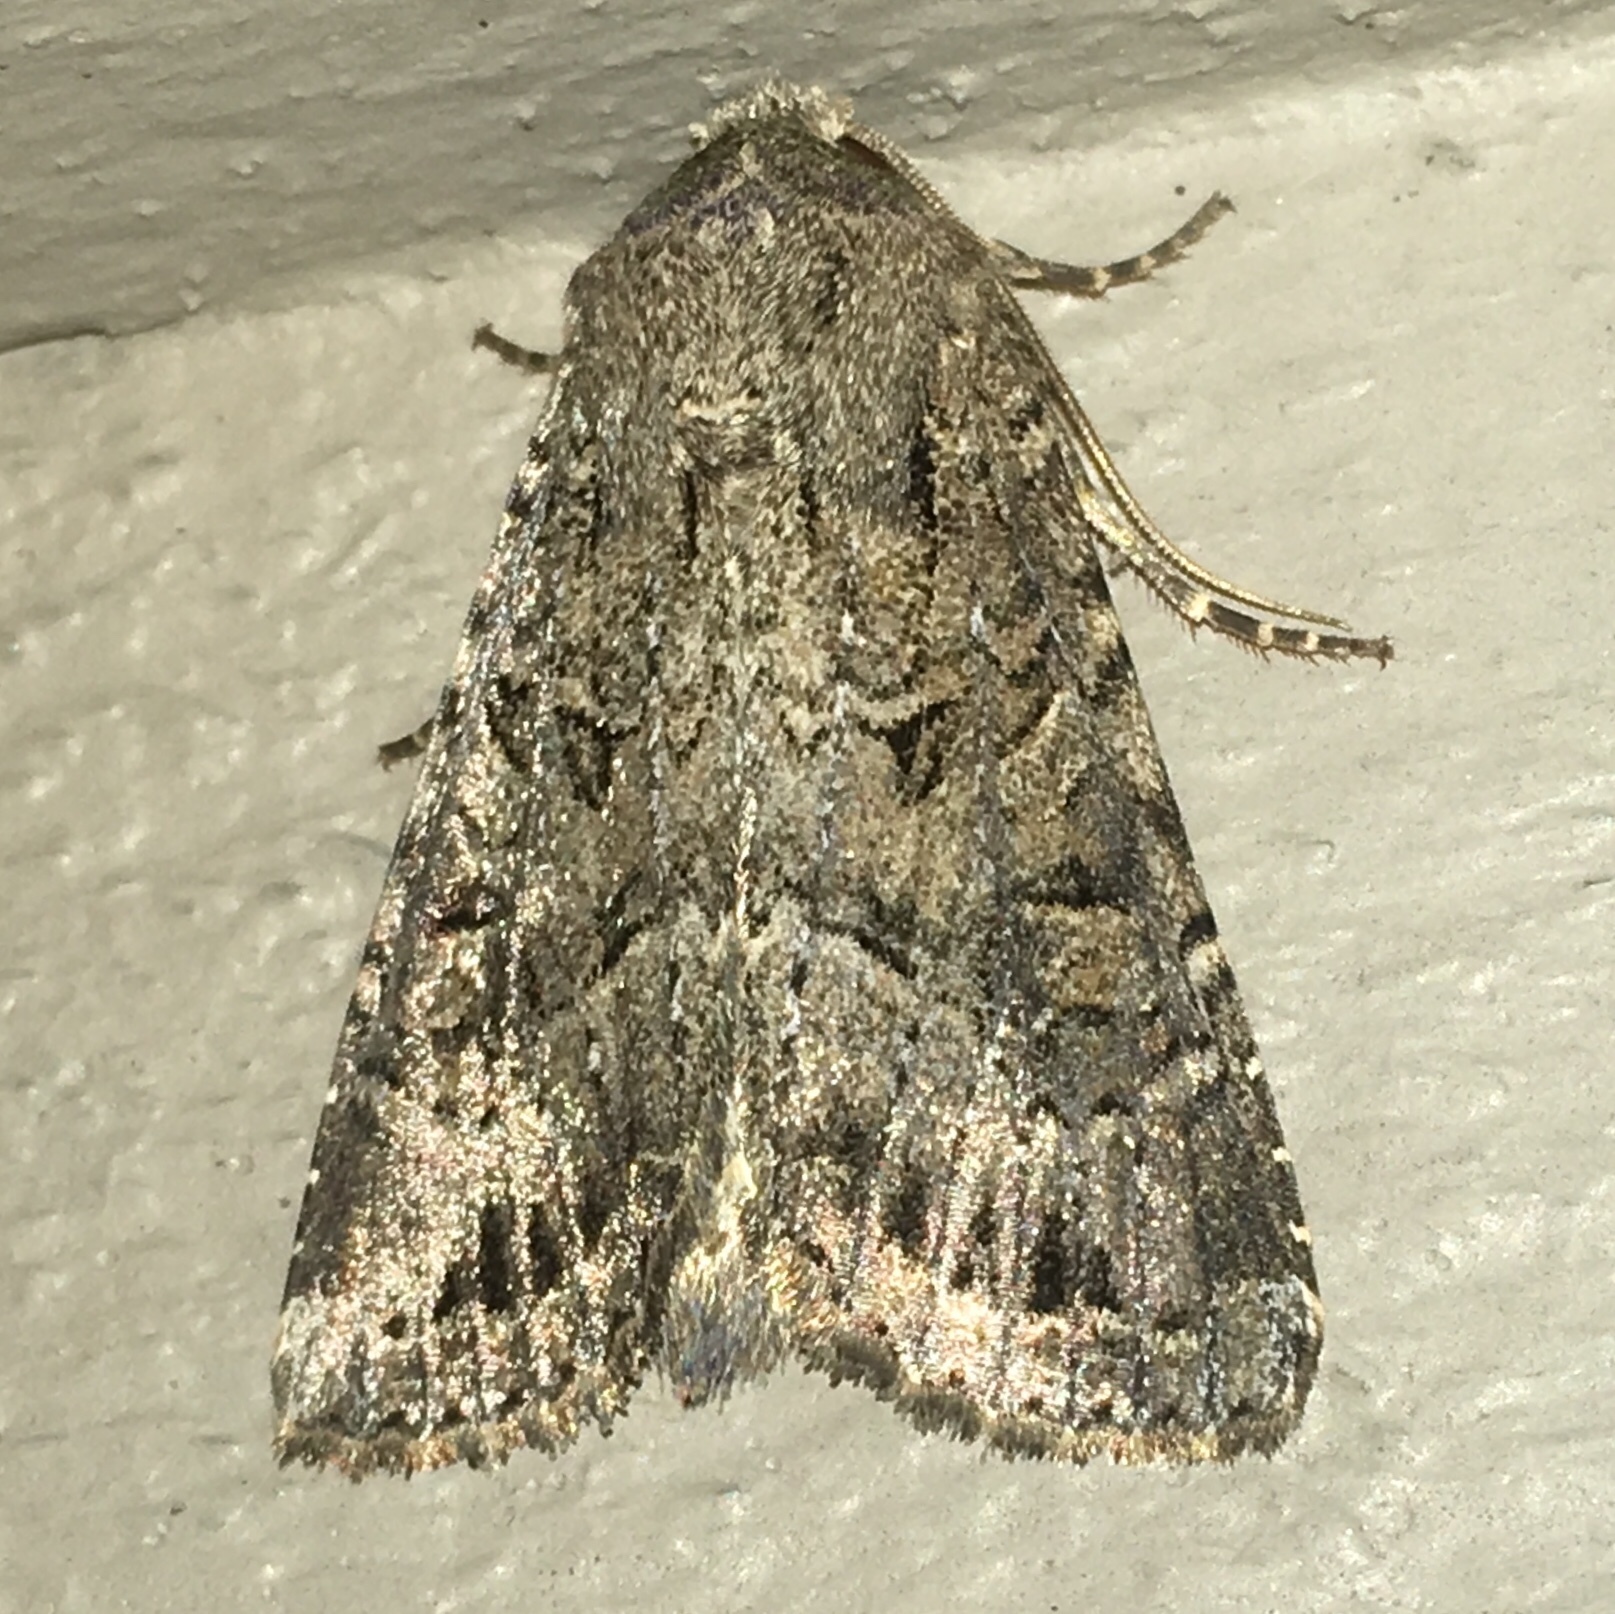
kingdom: Animalia
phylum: Arthropoda
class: Insecta
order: Lepidoptera
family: Noctuidae
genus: Apamea
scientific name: Apamea devastator
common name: Glassy cutworm
